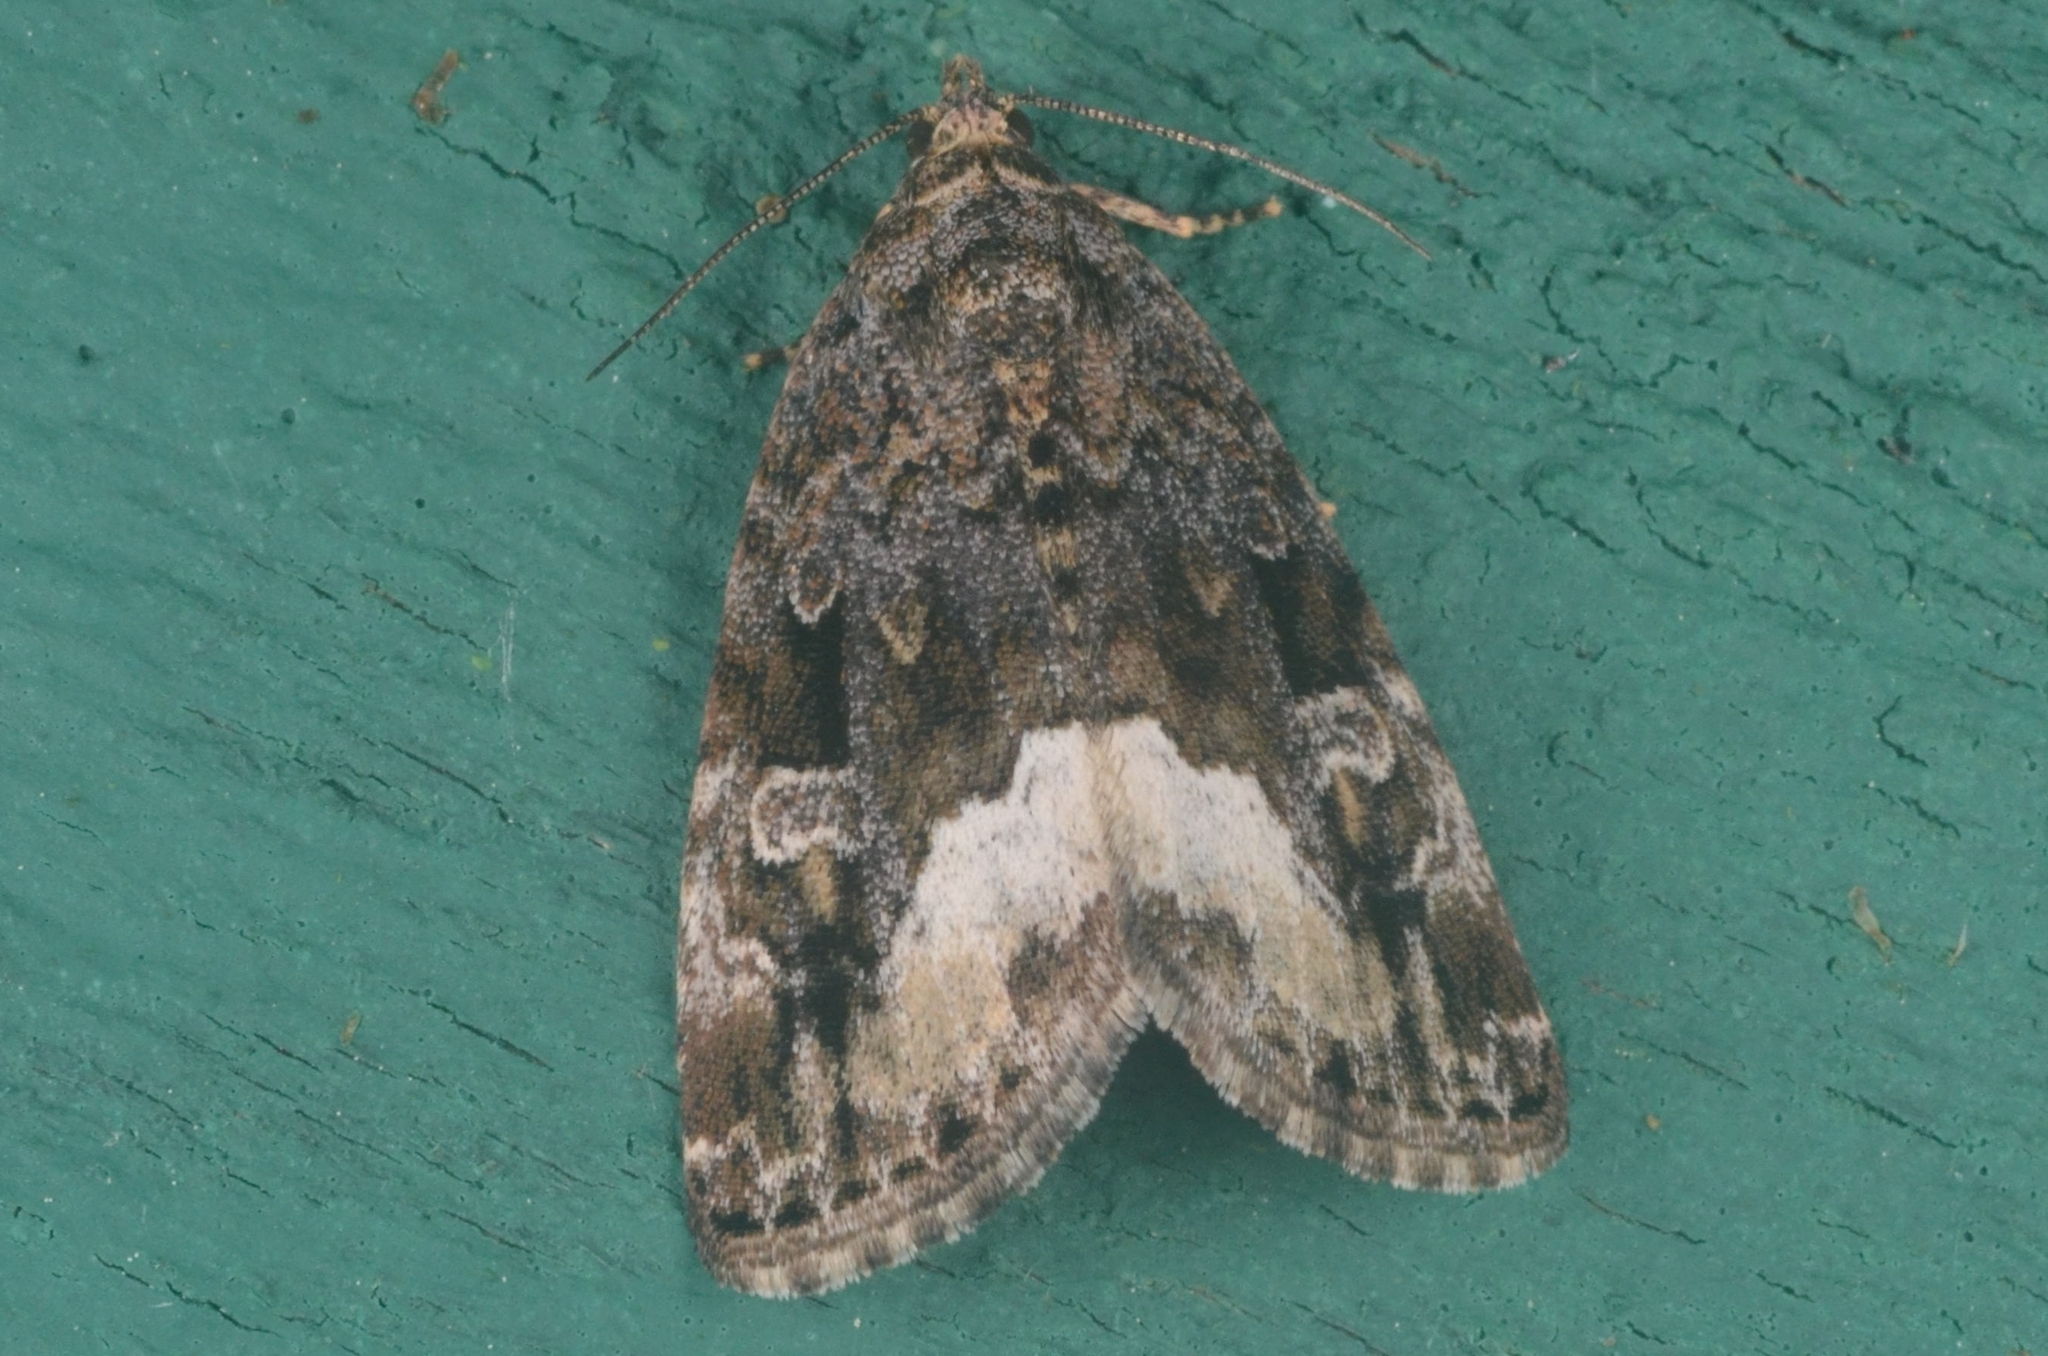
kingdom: Animalia
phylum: Arthropoda
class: Insecta
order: Lepidoptera
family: Noctuidae
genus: Deltote
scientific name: Deltote pygarga
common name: Marbled white spot
